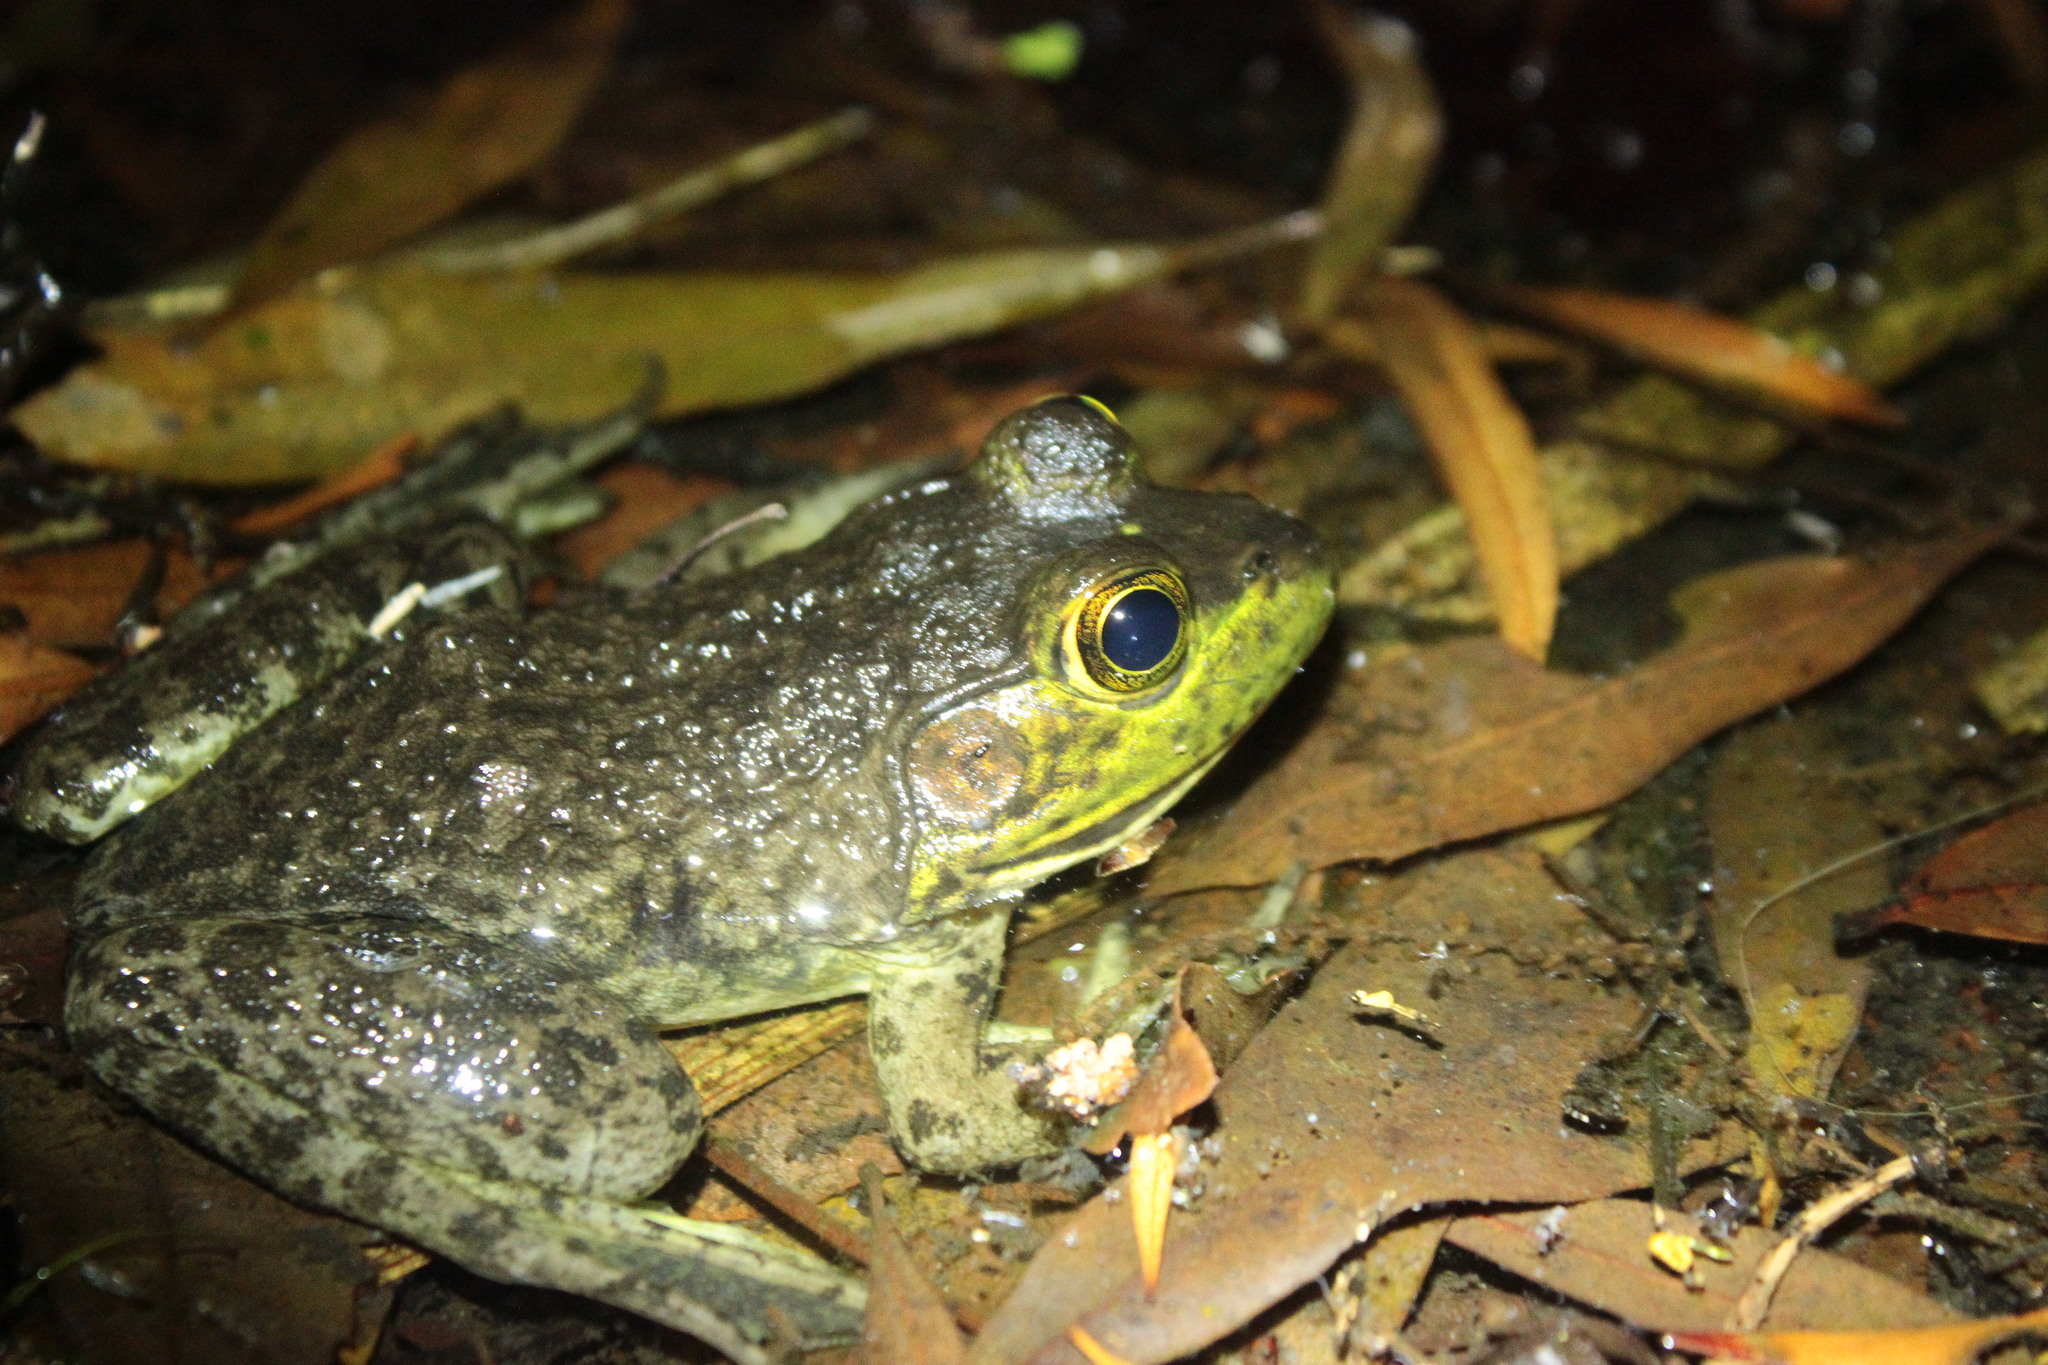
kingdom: Animalia
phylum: Chordata
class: Amphibia
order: Anura
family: Ranidae
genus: Lithobates
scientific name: Lithobates catesbeianus
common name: American bullfrog
